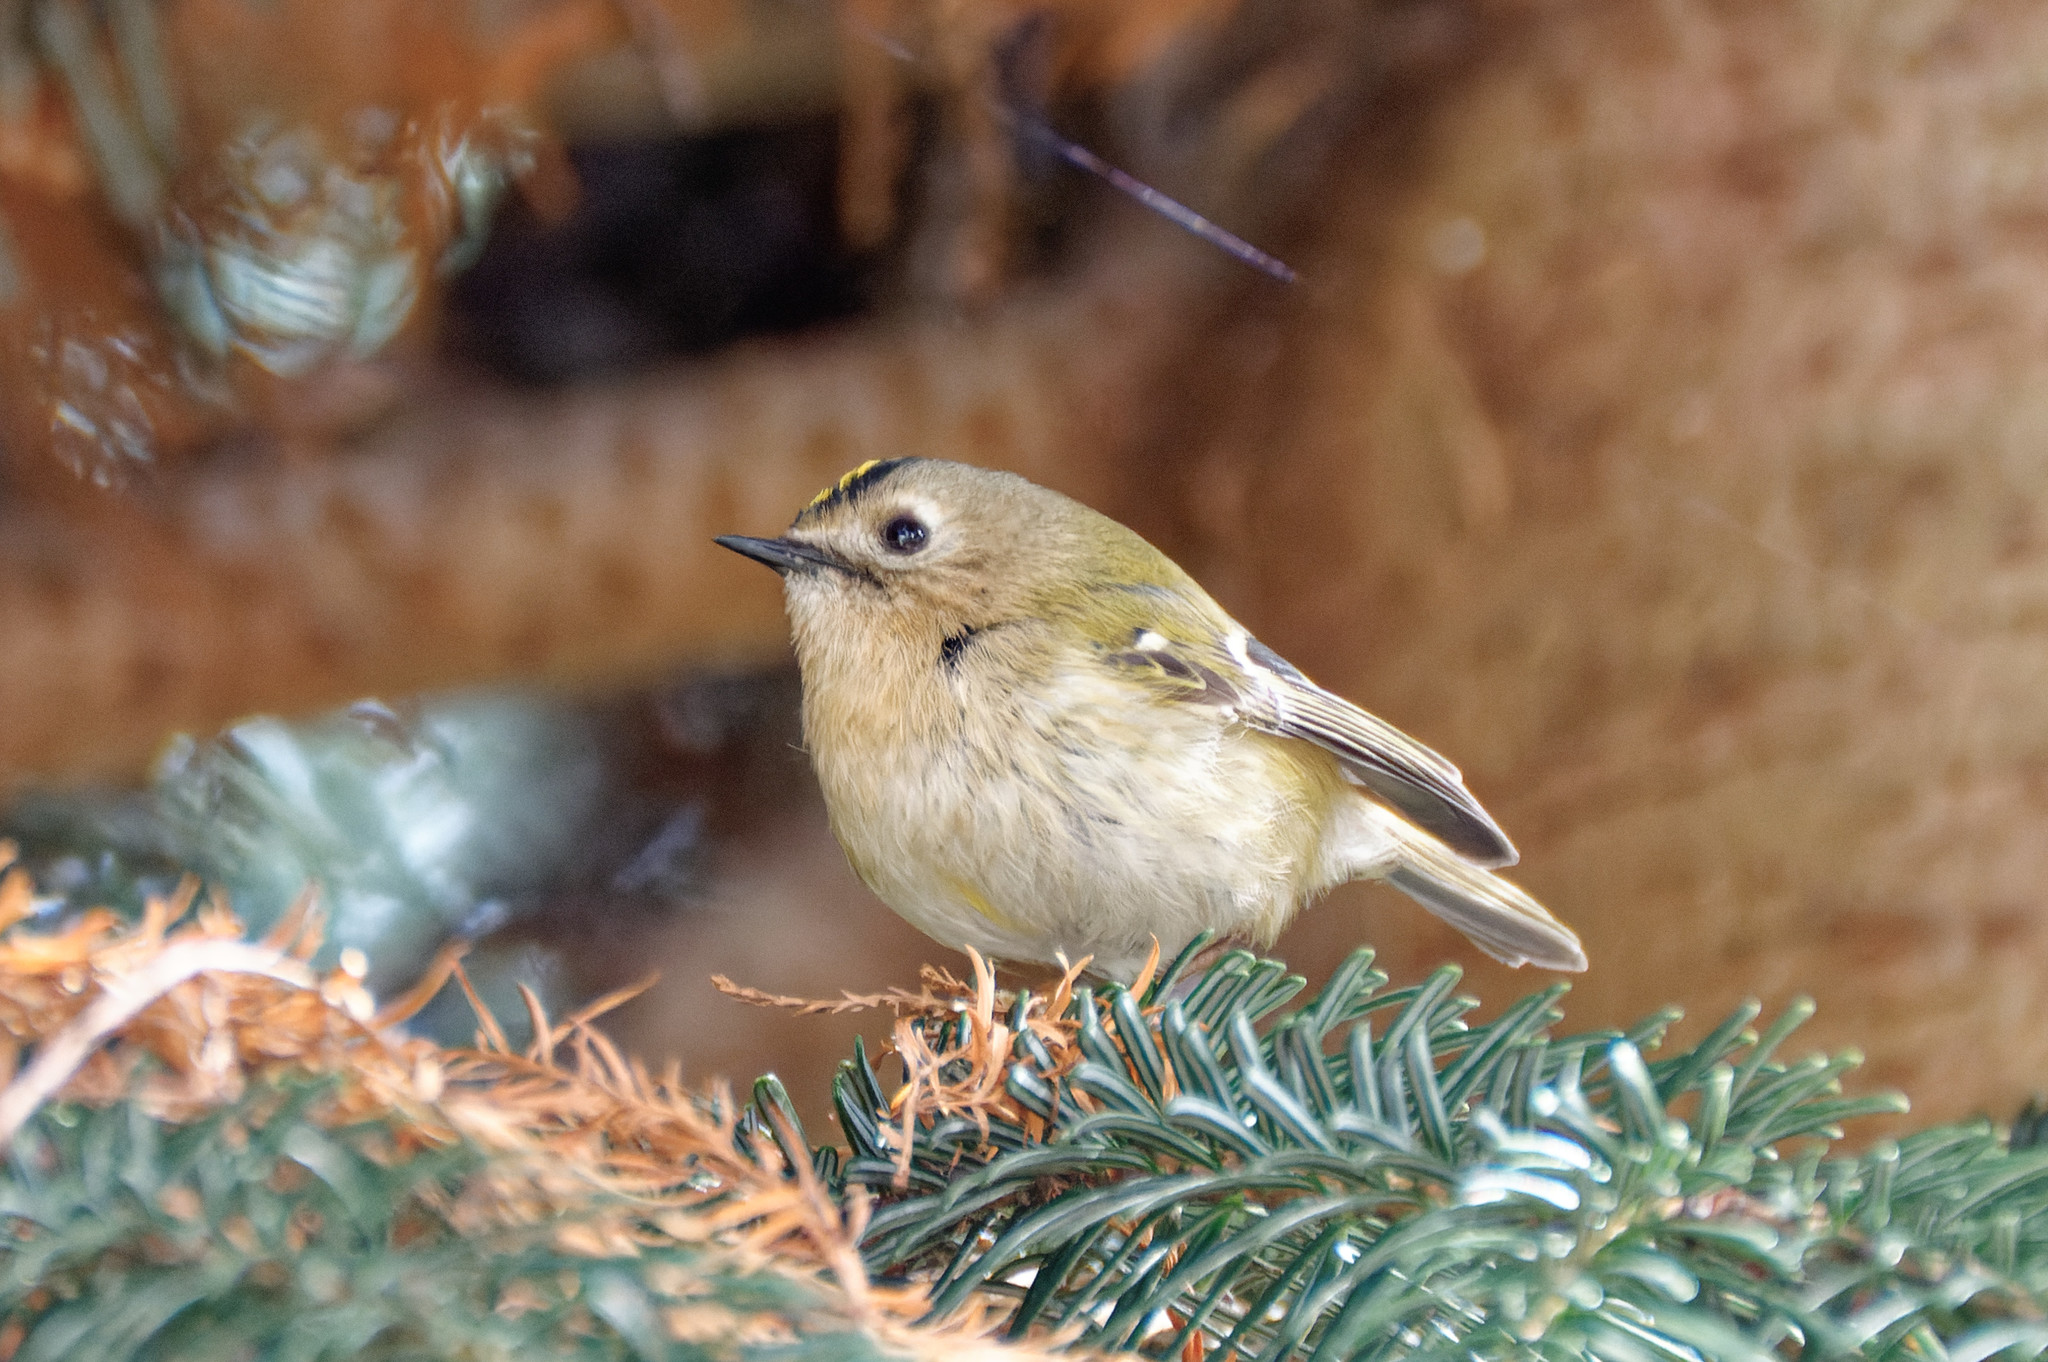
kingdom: Animalia
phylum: Chordata
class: Aves
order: Passeriformes
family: Regulidae
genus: Regulus
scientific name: Regulus regulus
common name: Goldcrest
